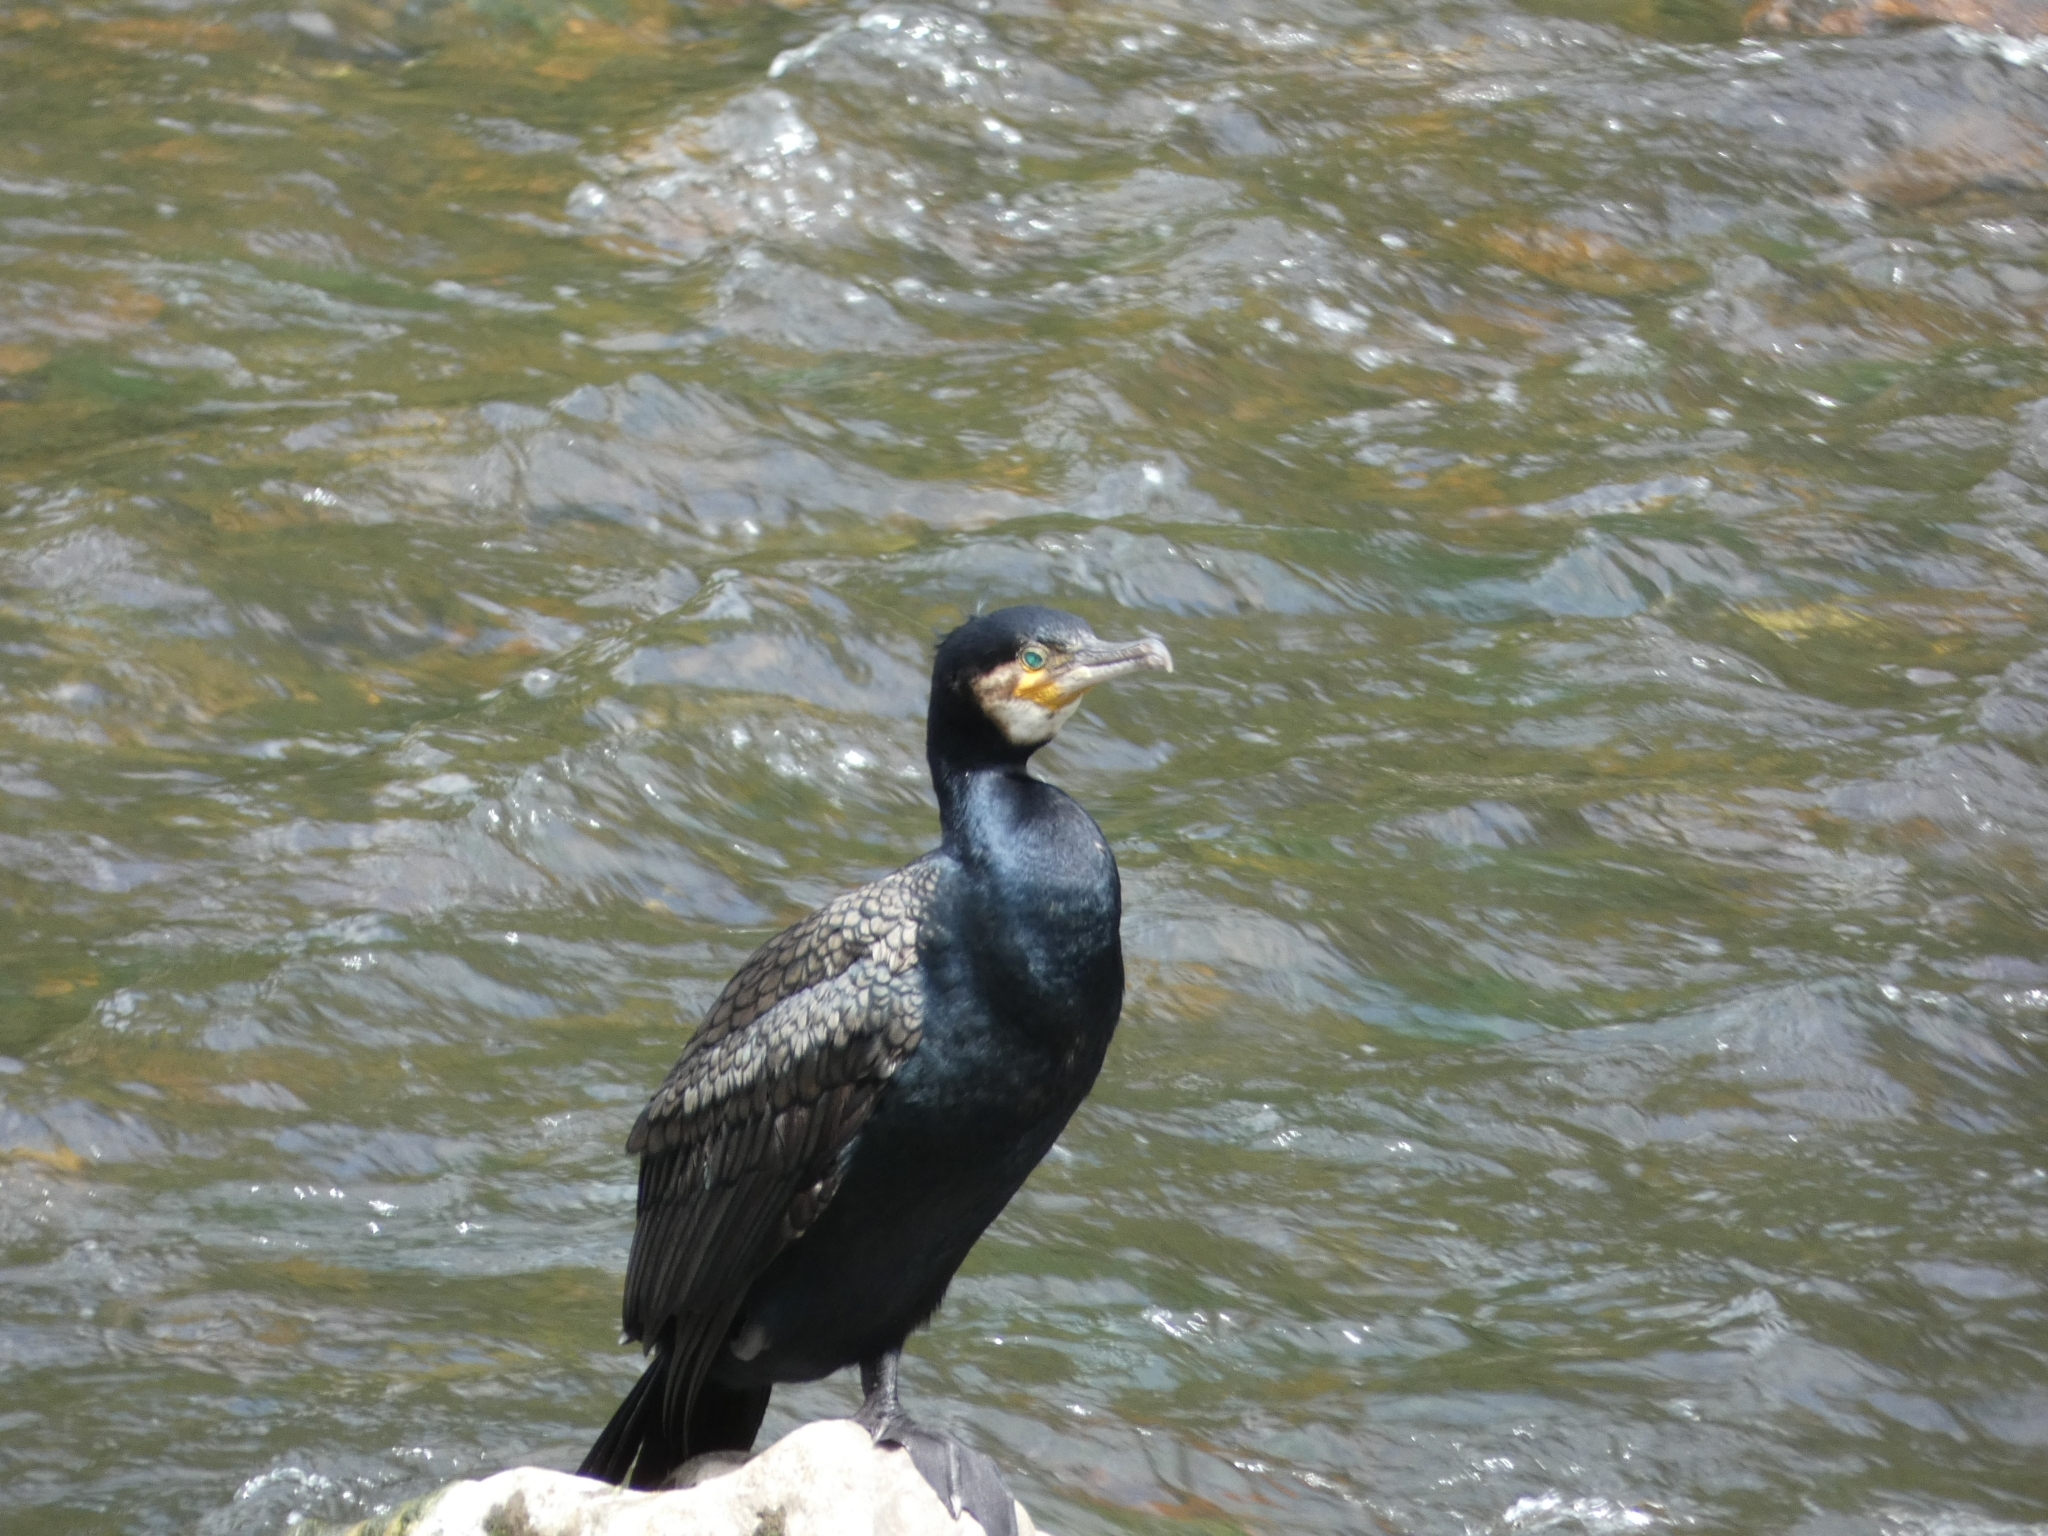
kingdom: Animalia
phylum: Chordata
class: Aves
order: Suliformes
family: Phalacrocoracidae
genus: Phalacrocorax
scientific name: Phalacrocorax carbo
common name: Great cormorant
